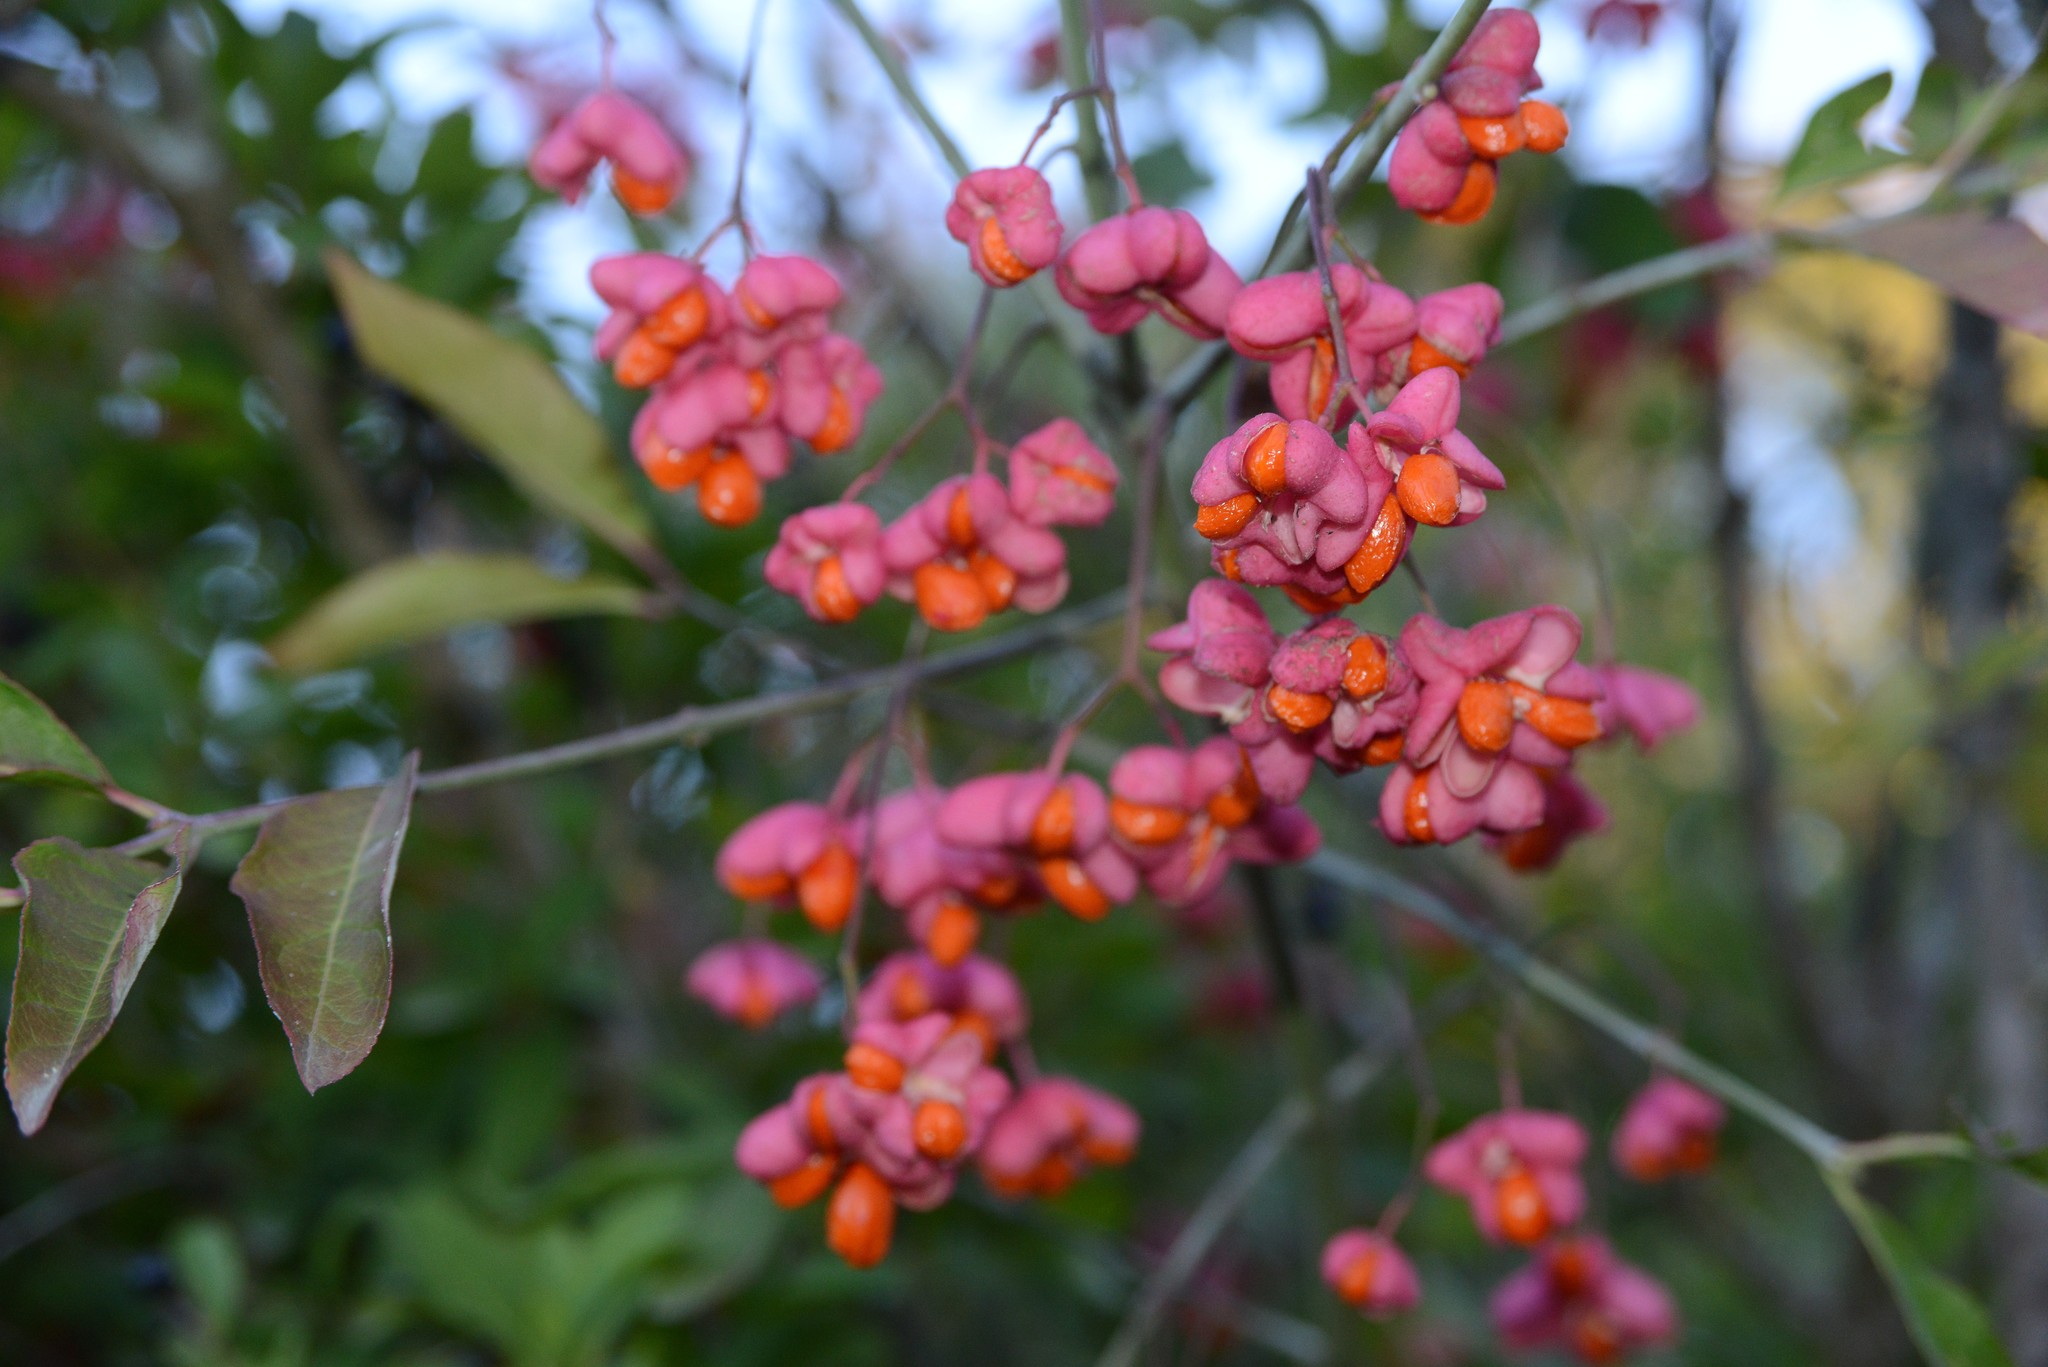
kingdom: Plantae
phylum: Tracheophyta
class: Magnoliopsida
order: Celastrales
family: Celastraceae
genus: Euonymus
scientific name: Euonymus europaeus
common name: Spindle
